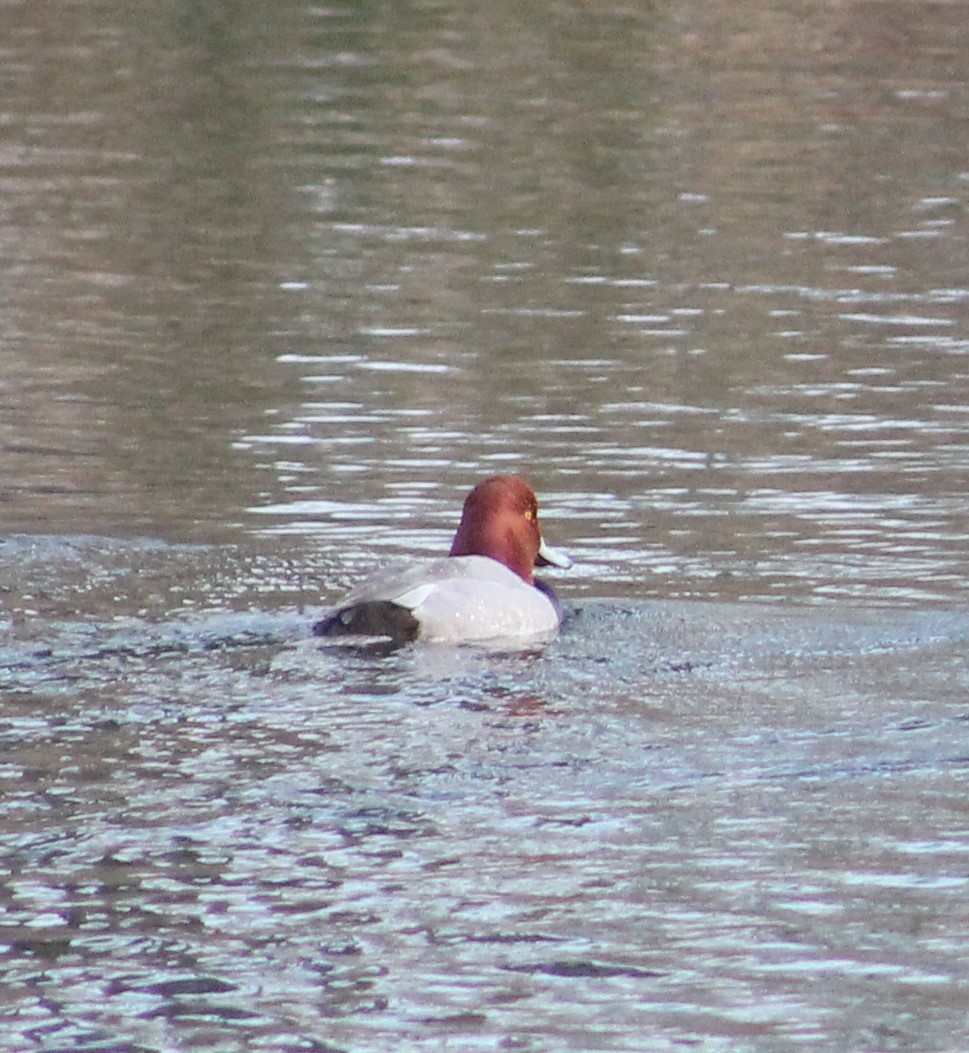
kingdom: Animalia
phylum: Chordata
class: Aves
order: Anseriformes
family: Anatidae
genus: Aythya
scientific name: Aythya americana
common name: Redhead
